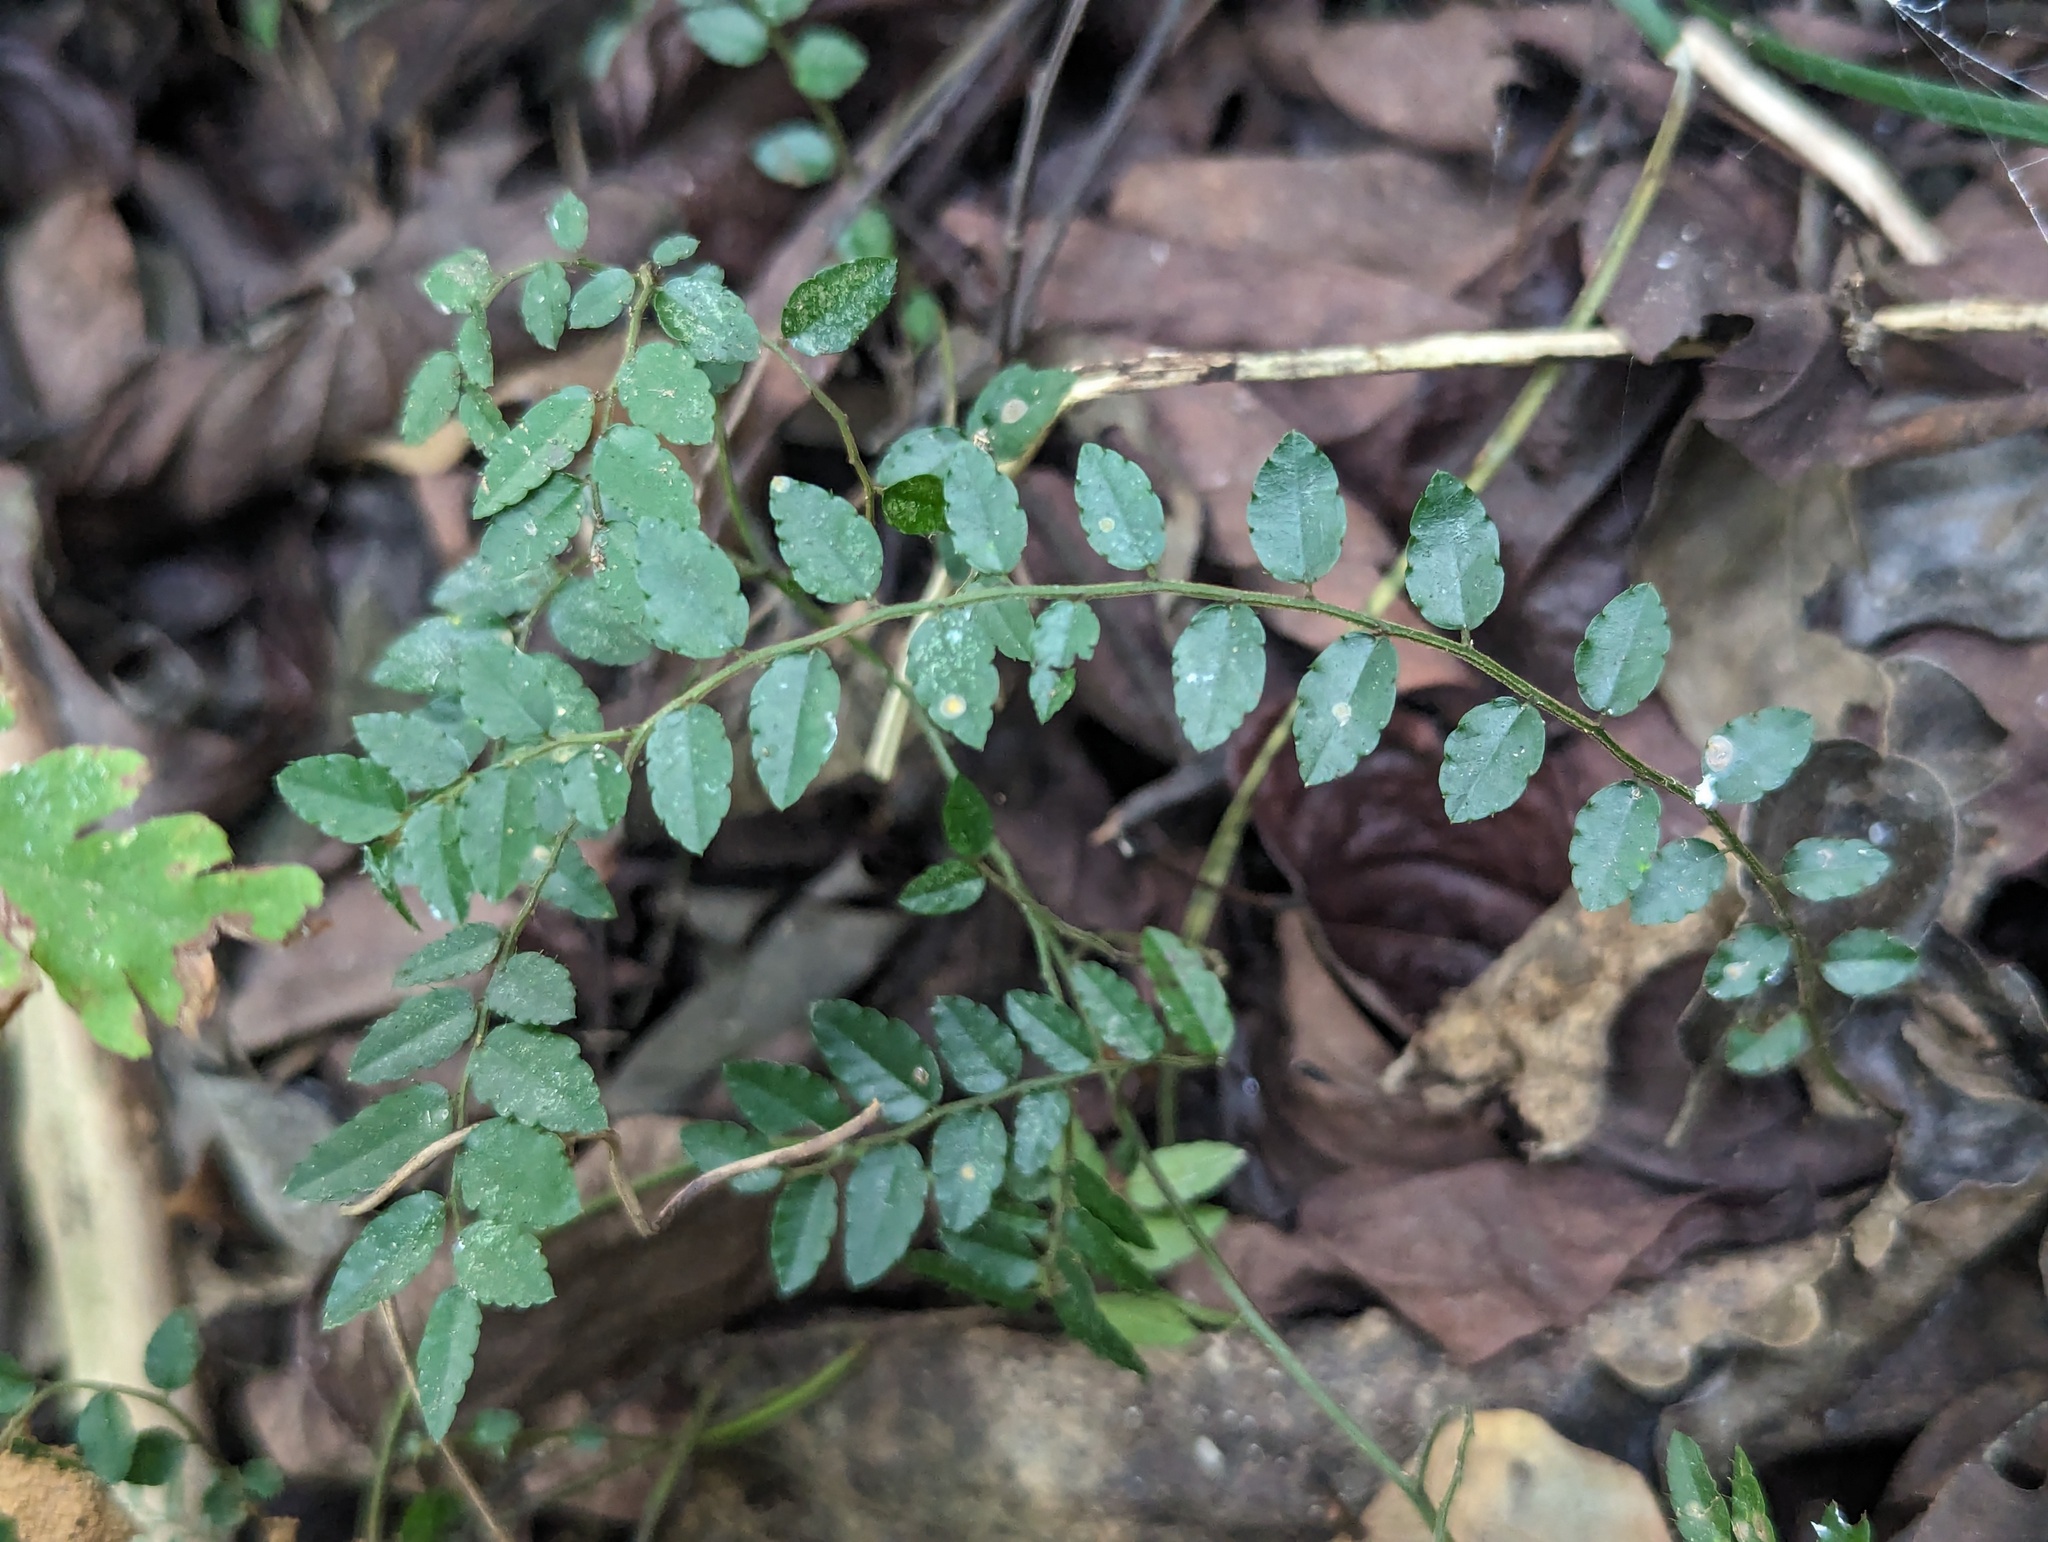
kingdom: Plantae
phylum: Tracheophyta
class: Magnoliopsida
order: Rosales
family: Rhamnaceae
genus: Ventilago
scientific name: Ventilago elegans
